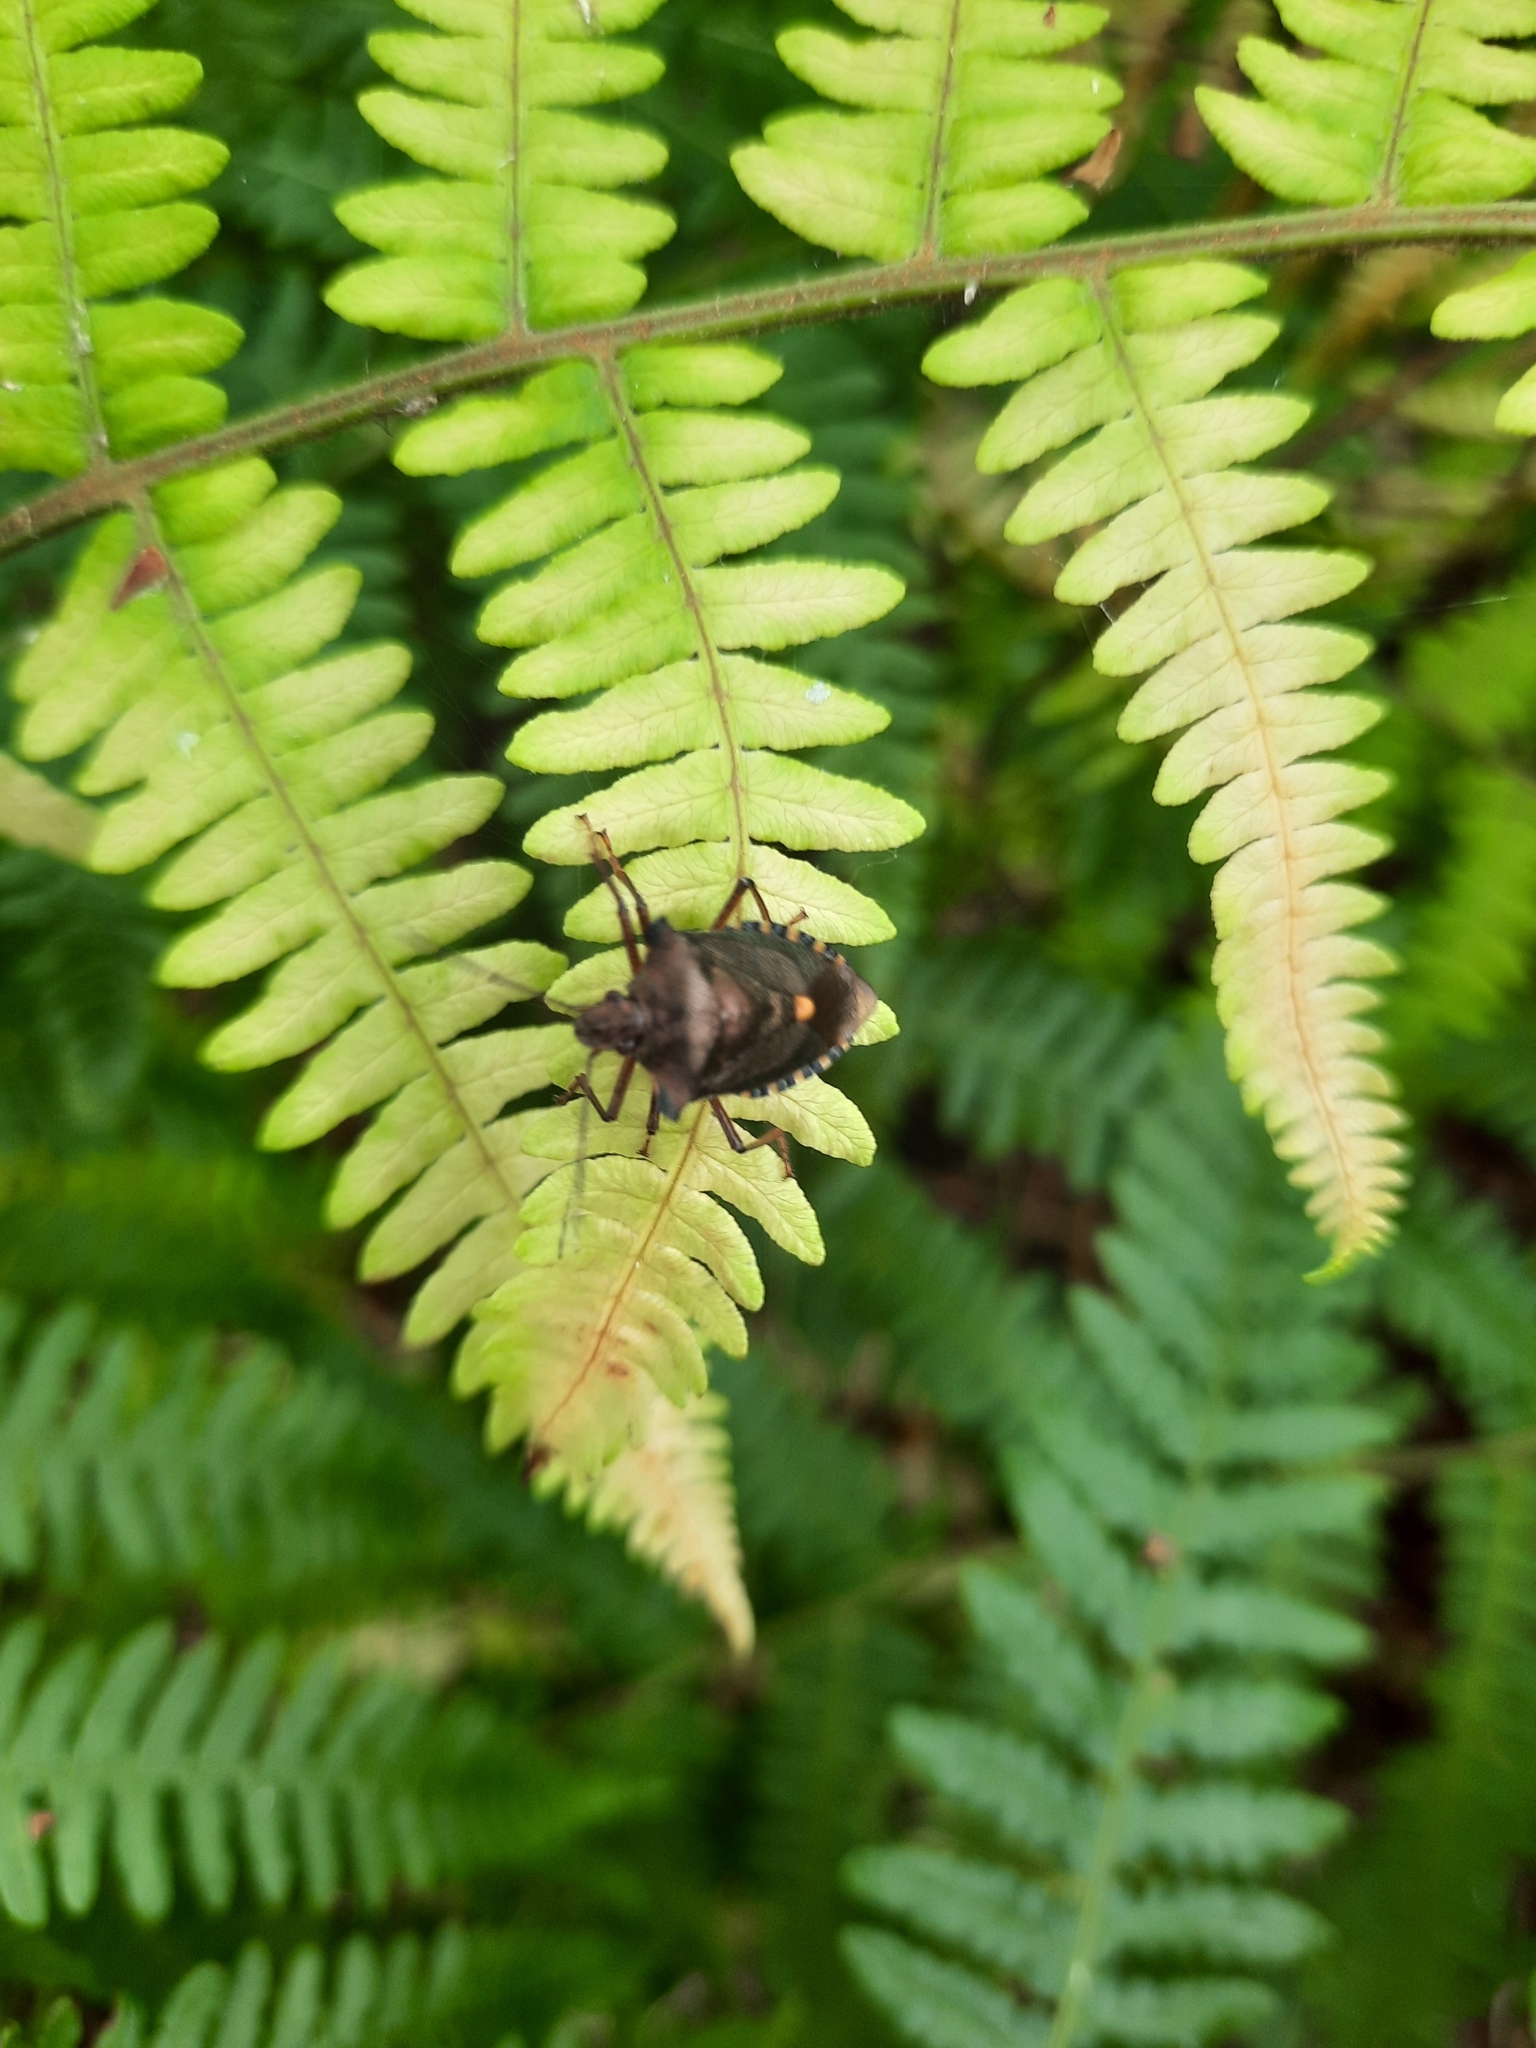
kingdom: Animalia
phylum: Arthropoda
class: Insecta
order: Hemiptera
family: Pentatomidae
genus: Pentatoma
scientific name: Pentatoma rufipes
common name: Forest bug
